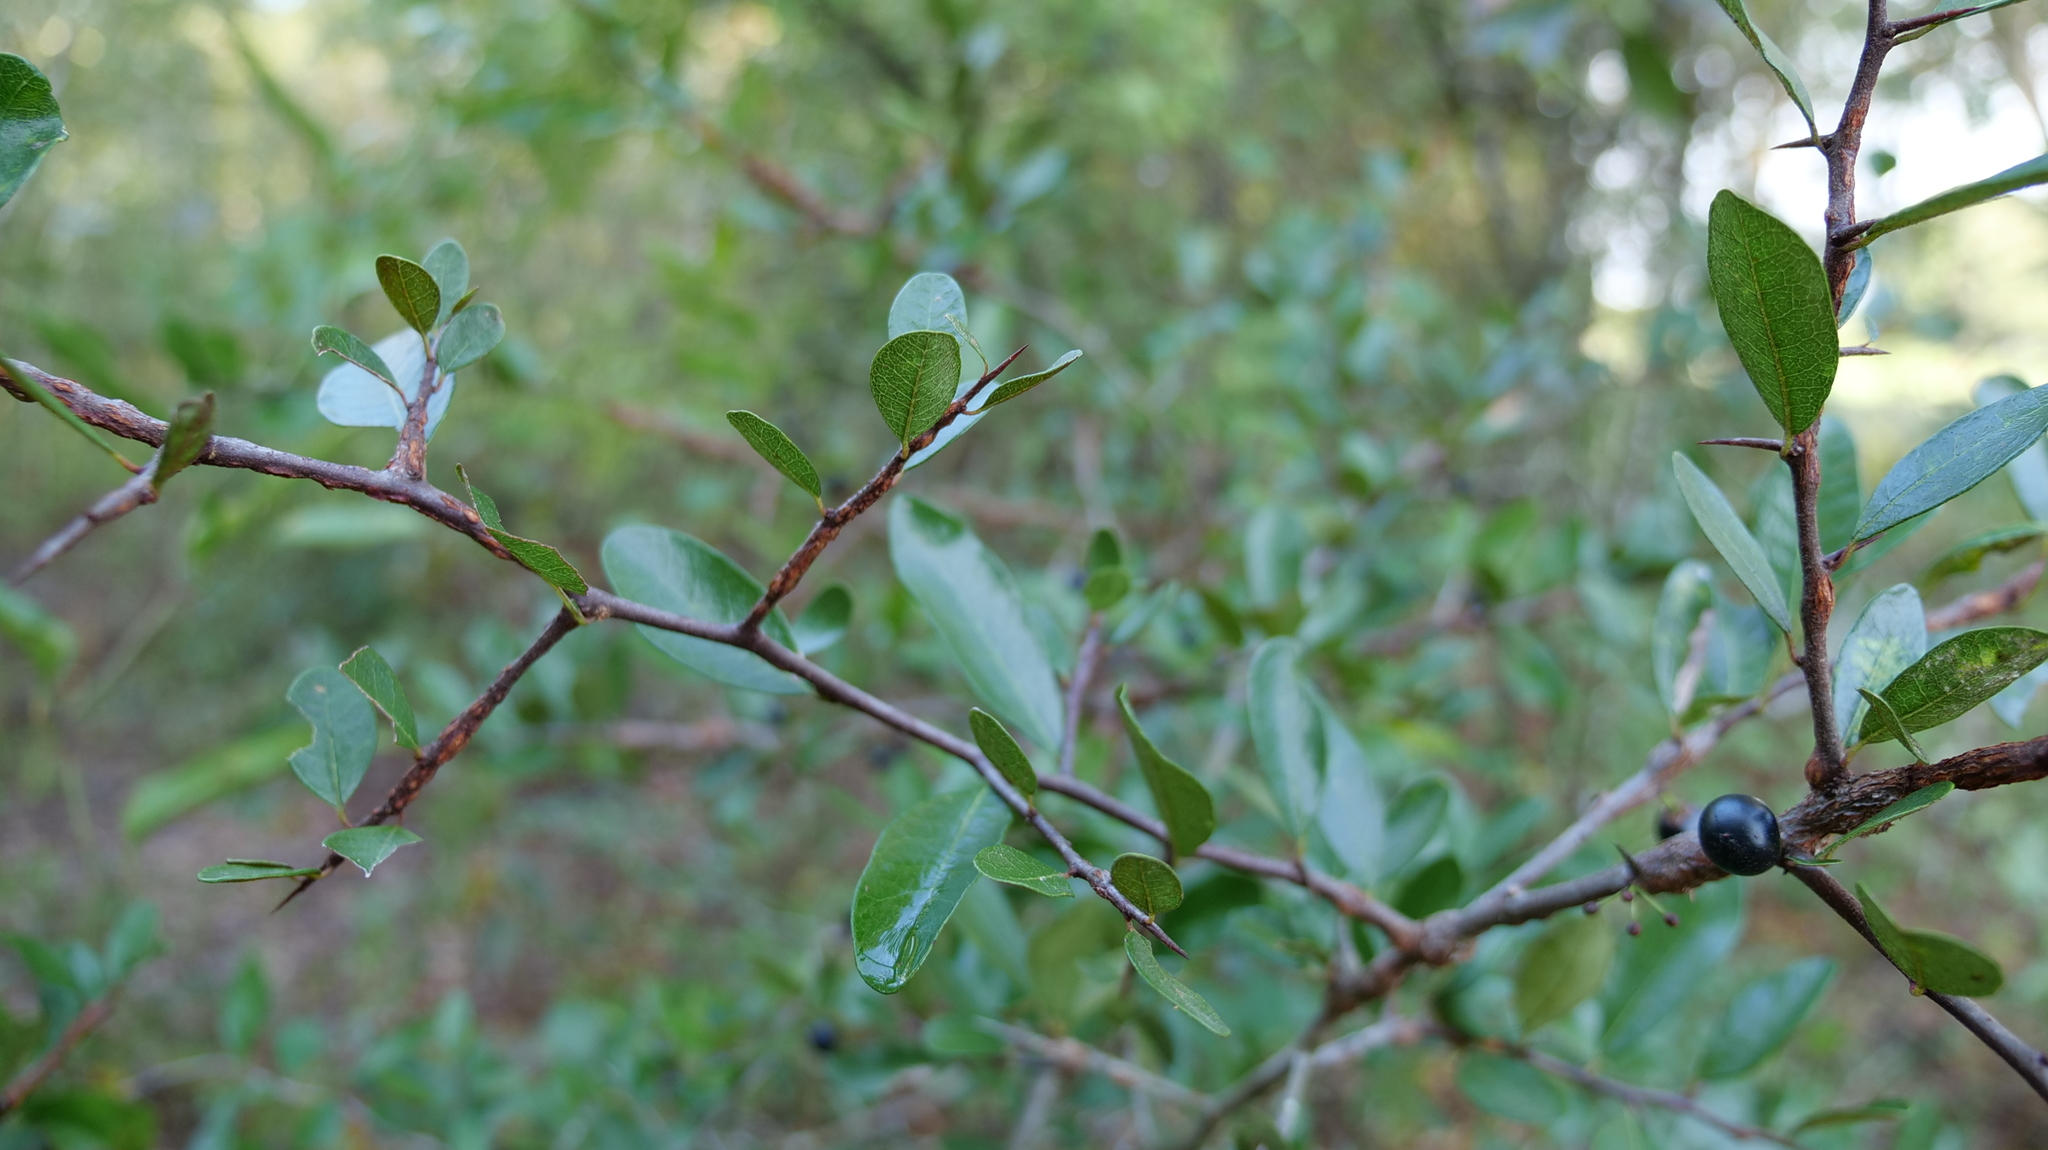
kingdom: Plantae
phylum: Tracheophyta
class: Magnoliopsida
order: Ericales
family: Sapotaceae
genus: Sideroxylon
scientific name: Sideroxylon tenax
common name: Tough-buckthorn
